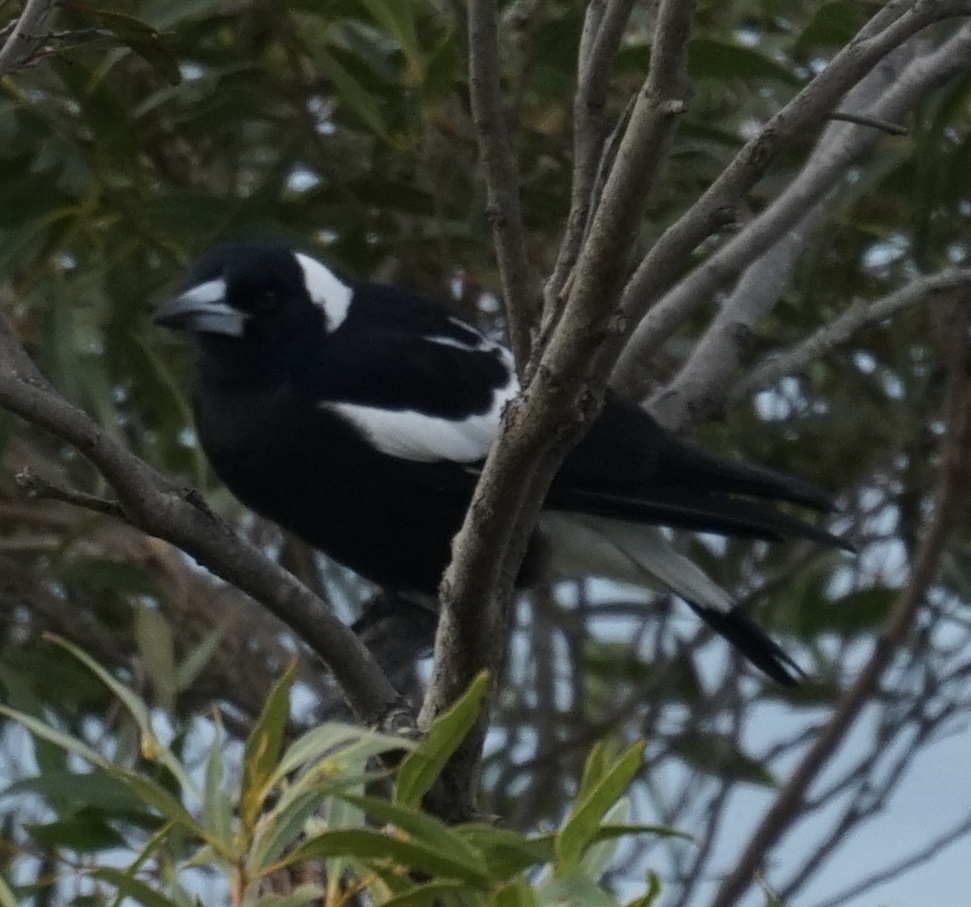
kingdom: Animalia
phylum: Chordata
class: Aves
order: Passeriformes
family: Cracticidae
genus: Gymnorhina
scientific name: Gymnorhina tibicen
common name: Australian magpie
